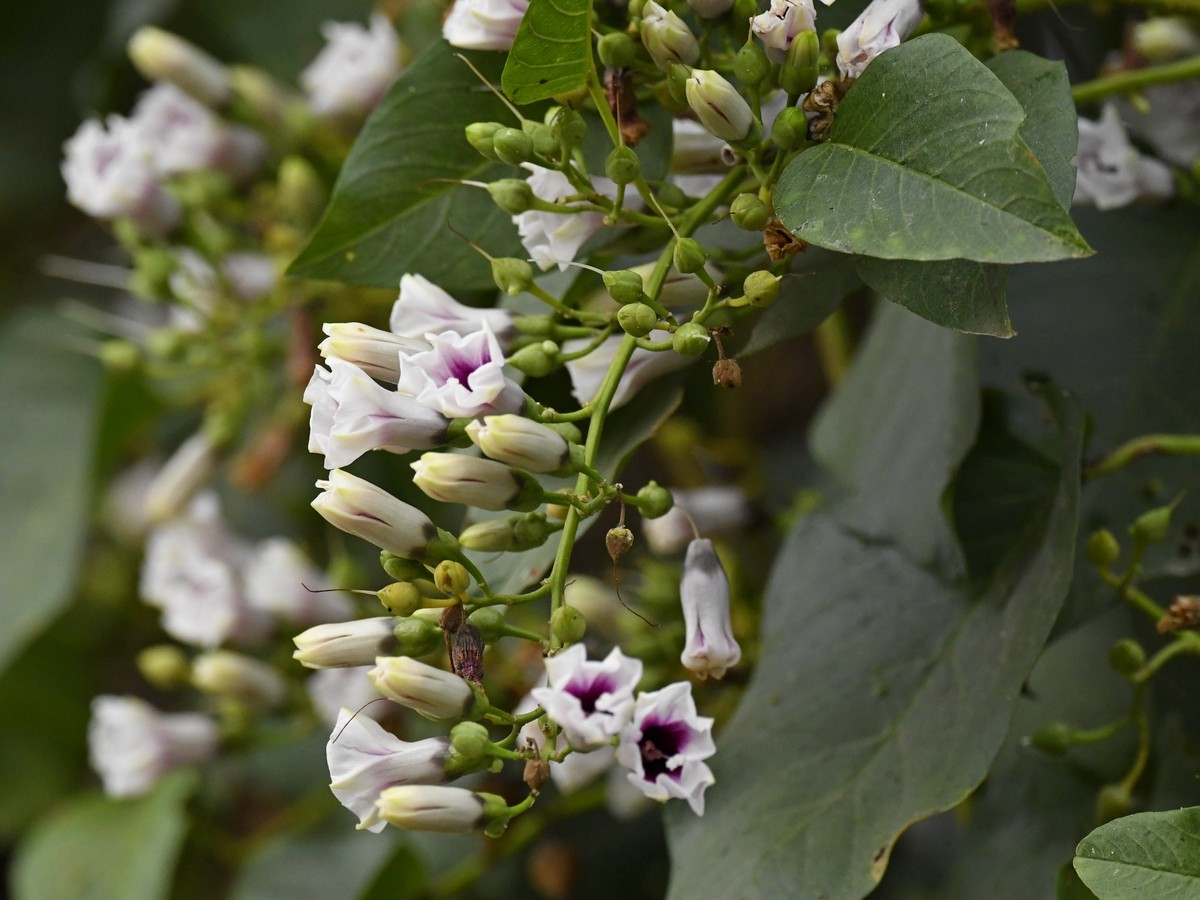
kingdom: Plantae
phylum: Tracheophyta
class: Magnoliopsida
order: Solanales
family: Convolvulaceae
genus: Ipomoea
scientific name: Ipomoea staphylina
